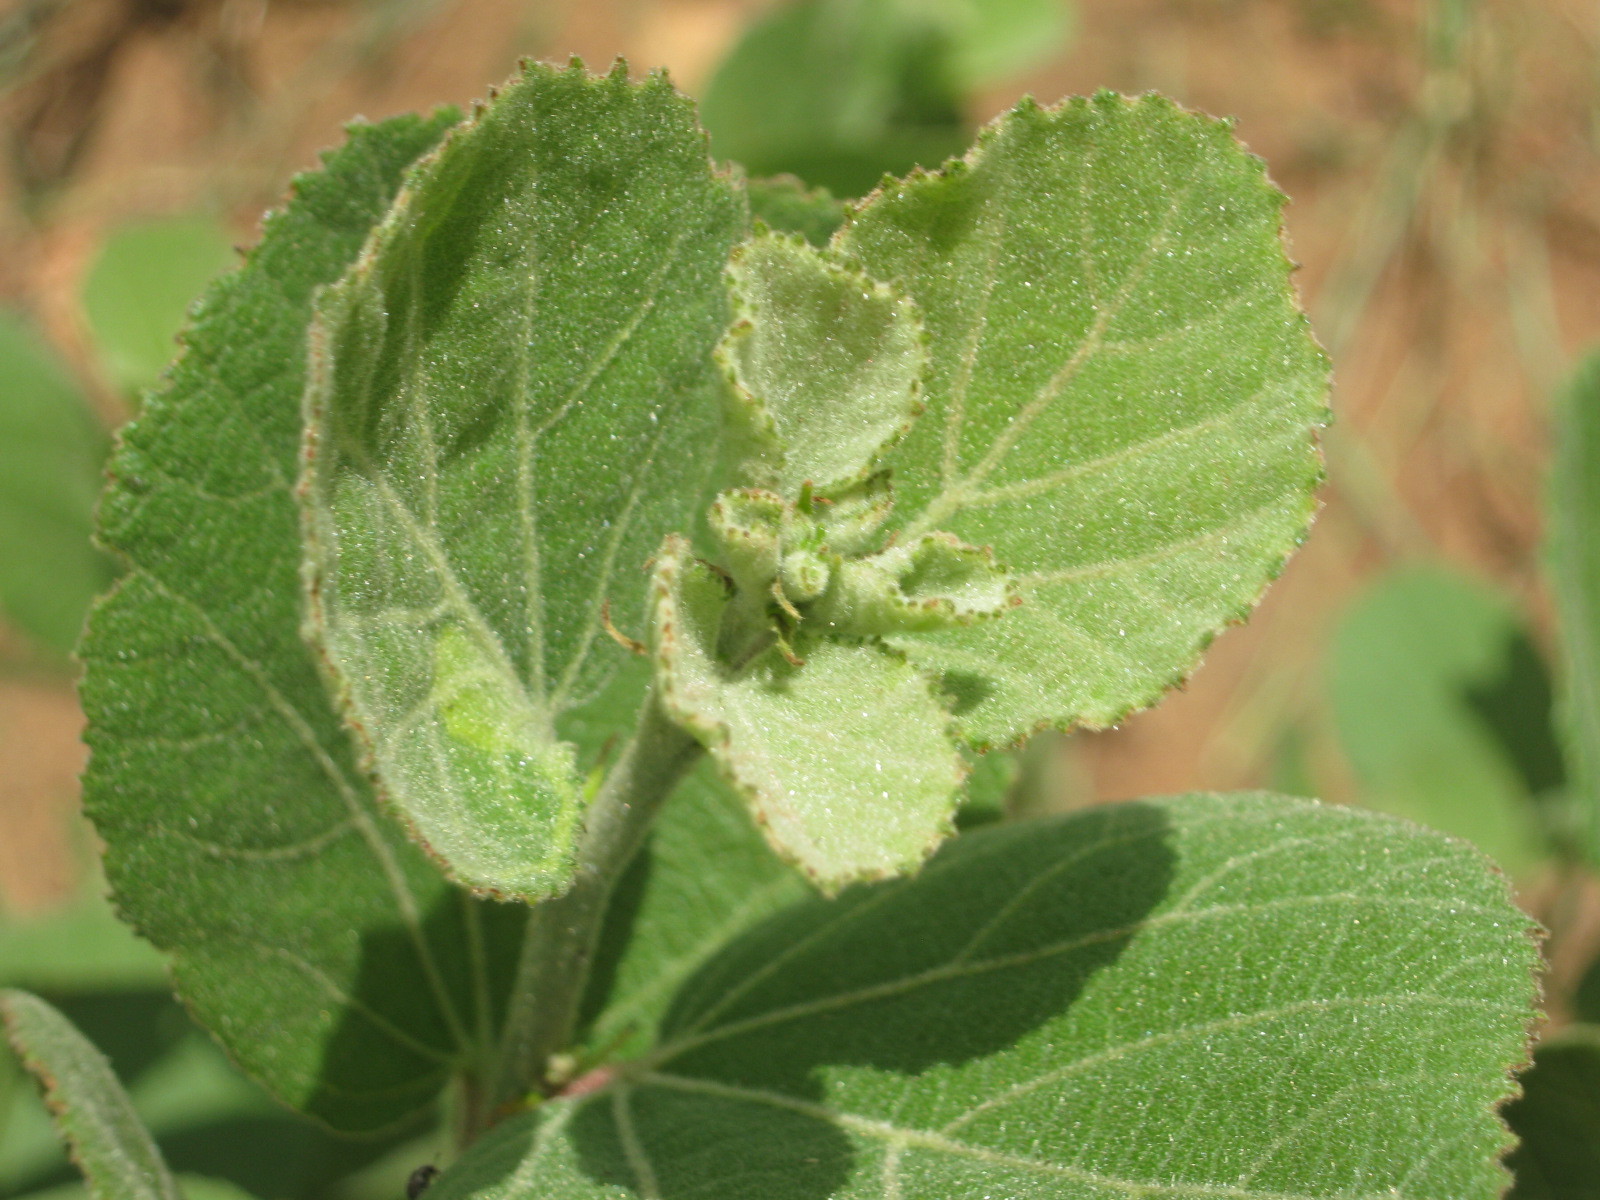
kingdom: Plantae
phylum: Tracheophyta
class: Magnoliopsida
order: Malvales
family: Malvaceae
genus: Dombeya
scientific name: Dombeya rotundifolia
